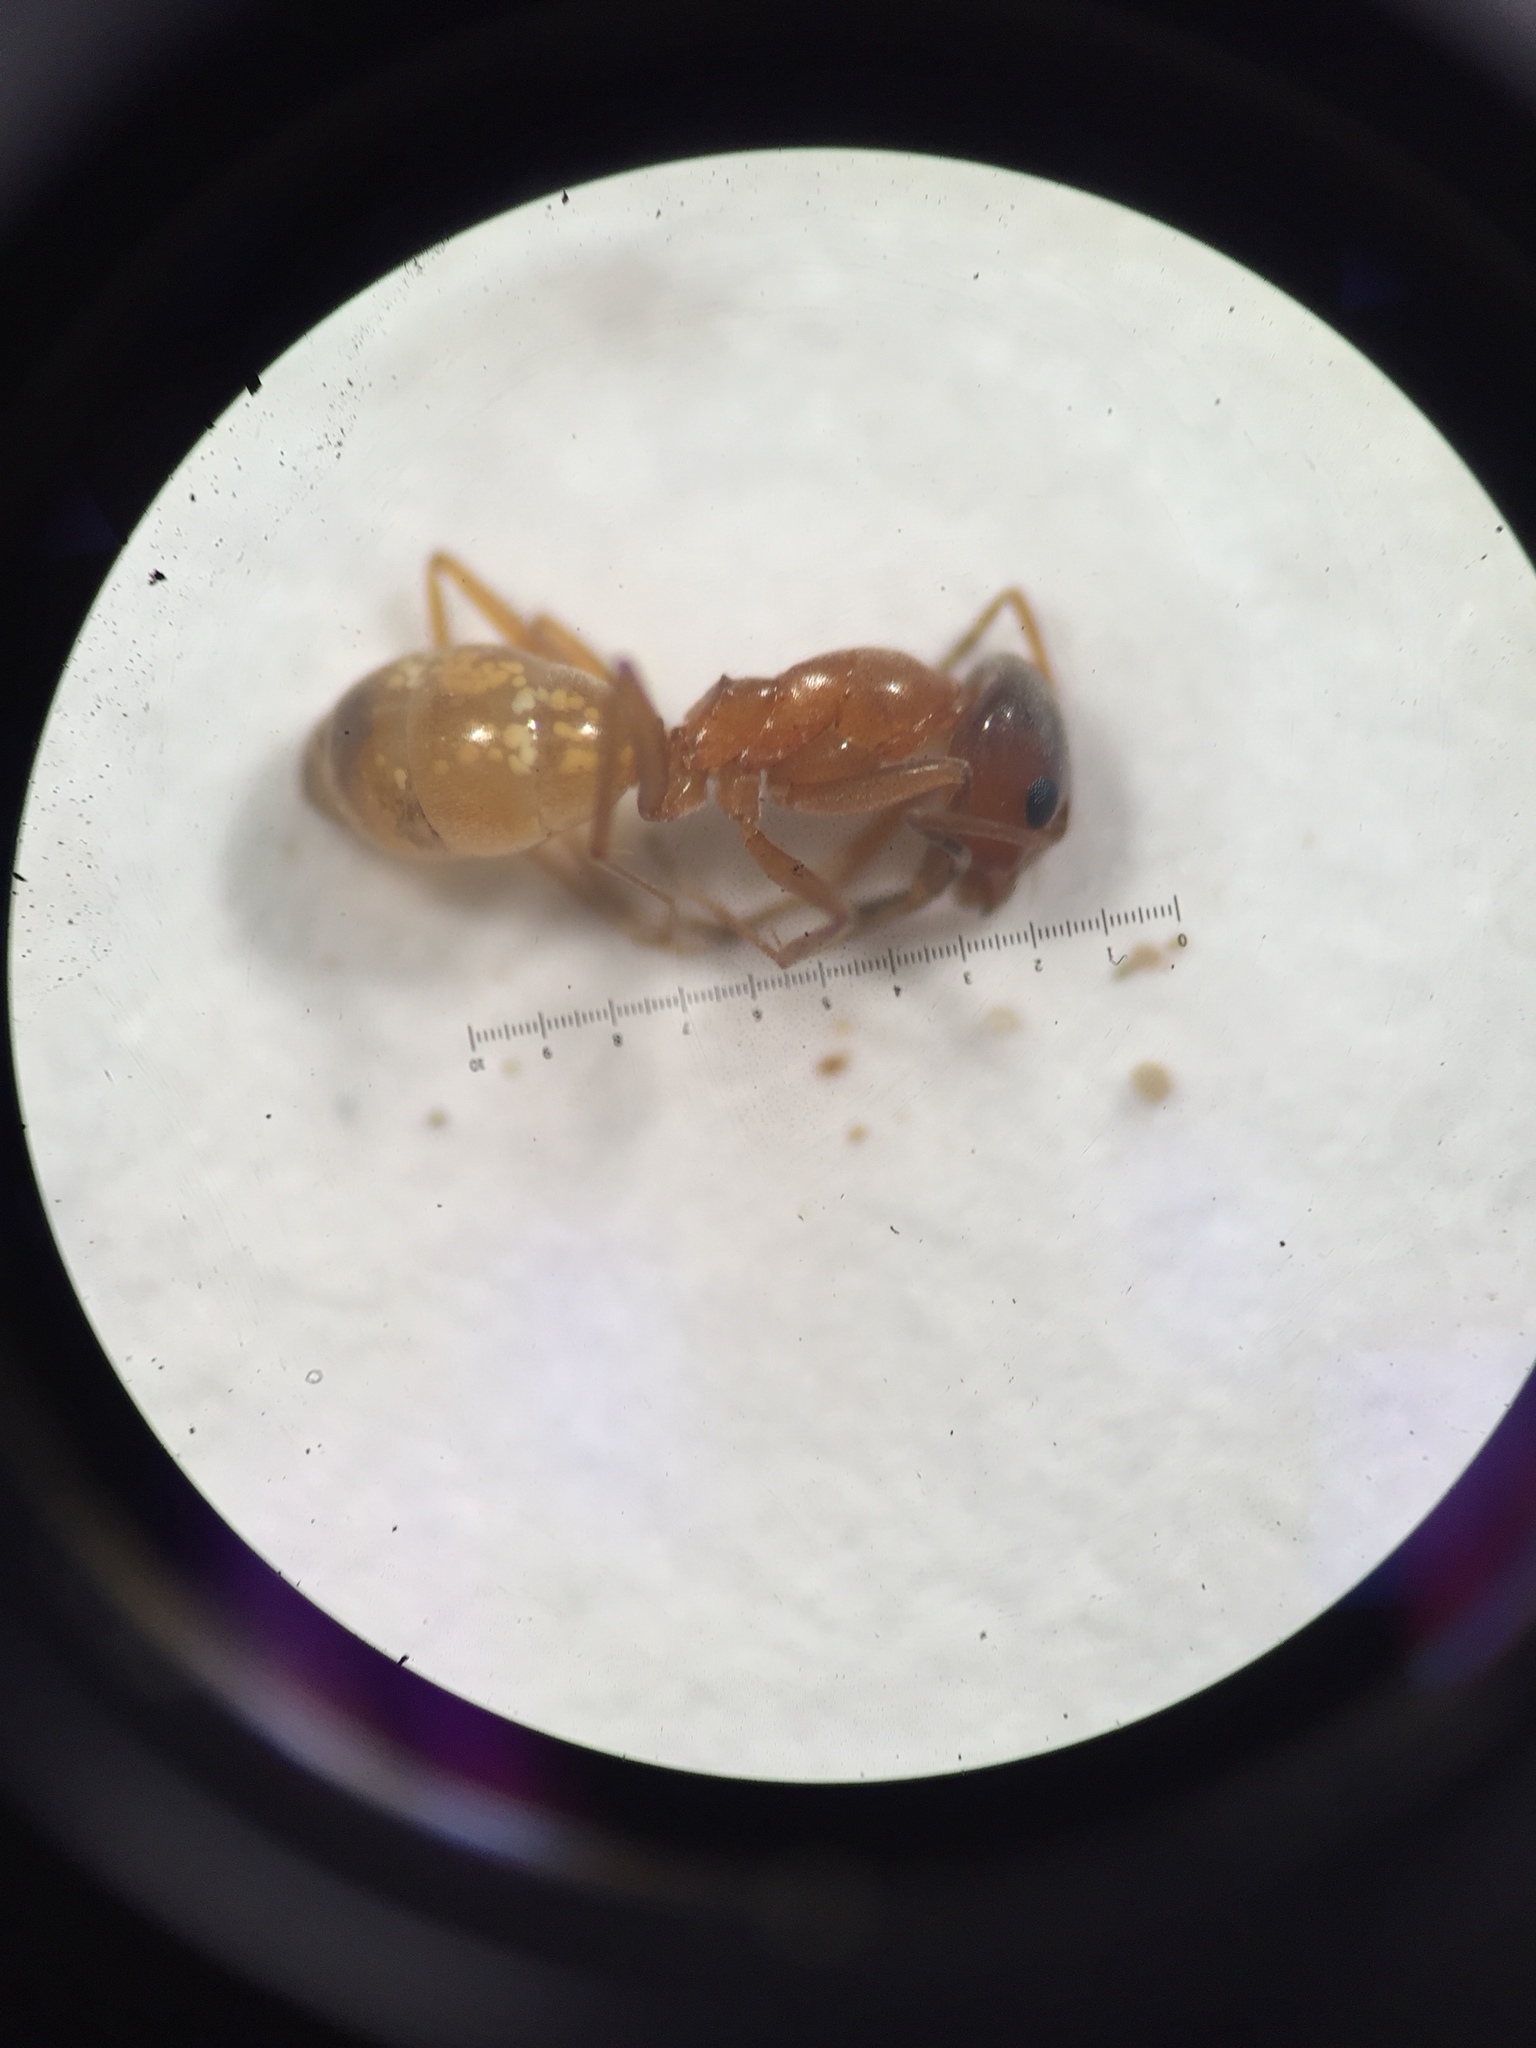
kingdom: Animalia
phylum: Arthropoda
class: Insecta
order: Hymenoptera
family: Formicidae
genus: Dorymyrmex
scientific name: Dorymyrmex flavus
